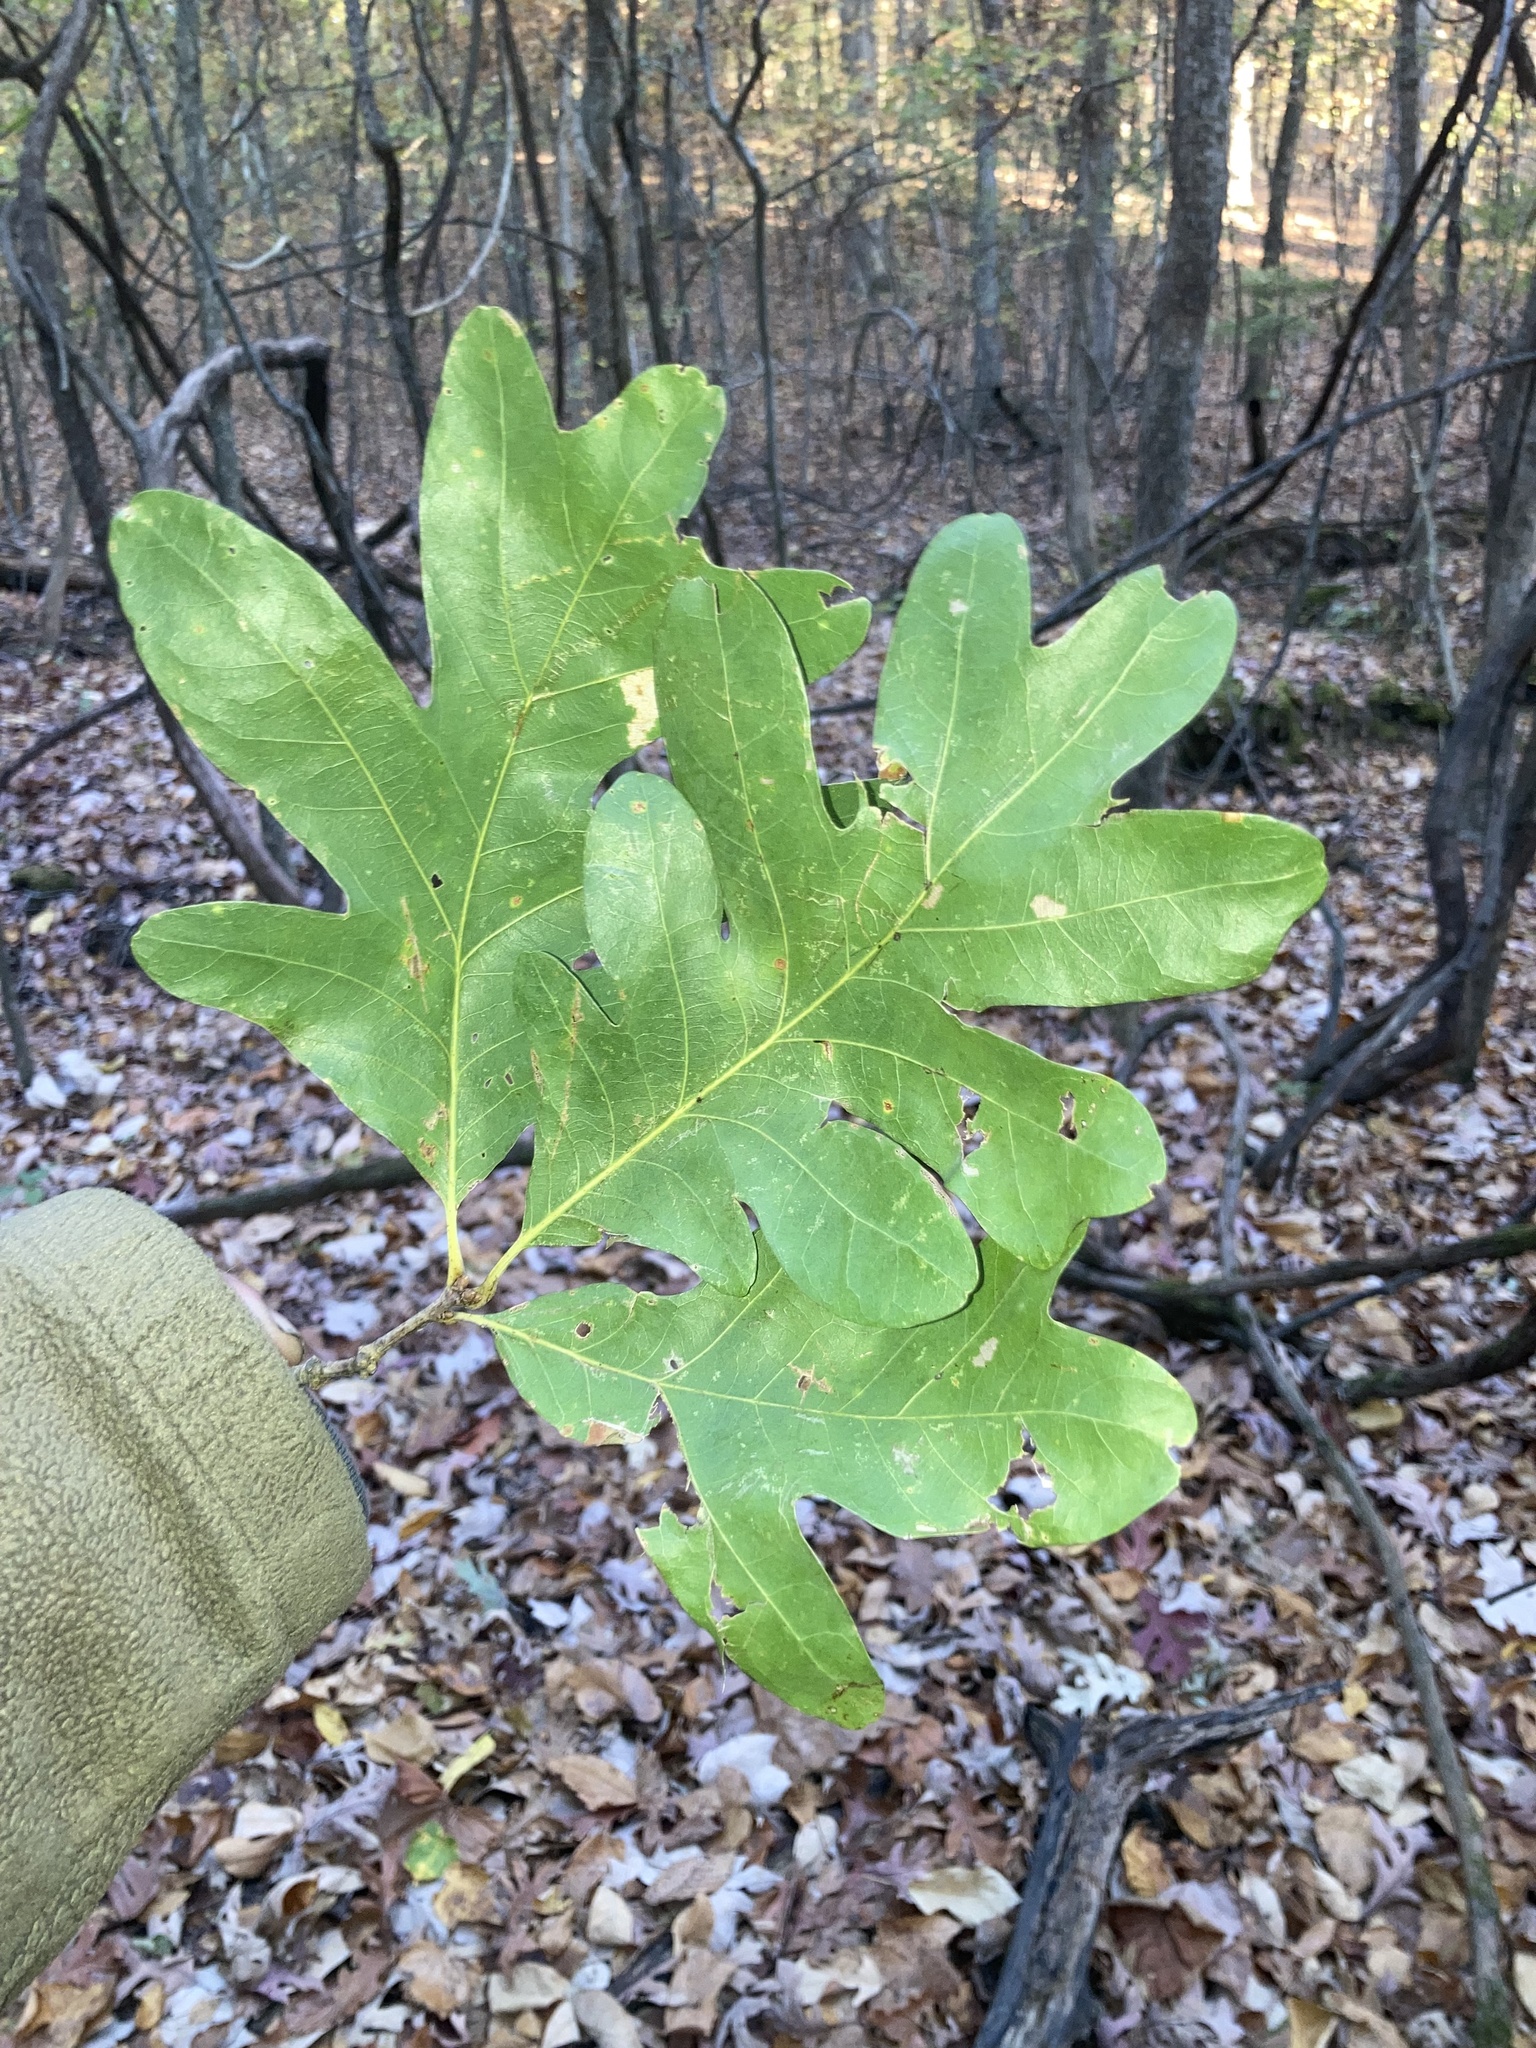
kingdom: Plantae
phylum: Tracheophyta
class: Magnoliopsida
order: Fagales
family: Fagaceae
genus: Quercus
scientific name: Quercus alba
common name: White oak
